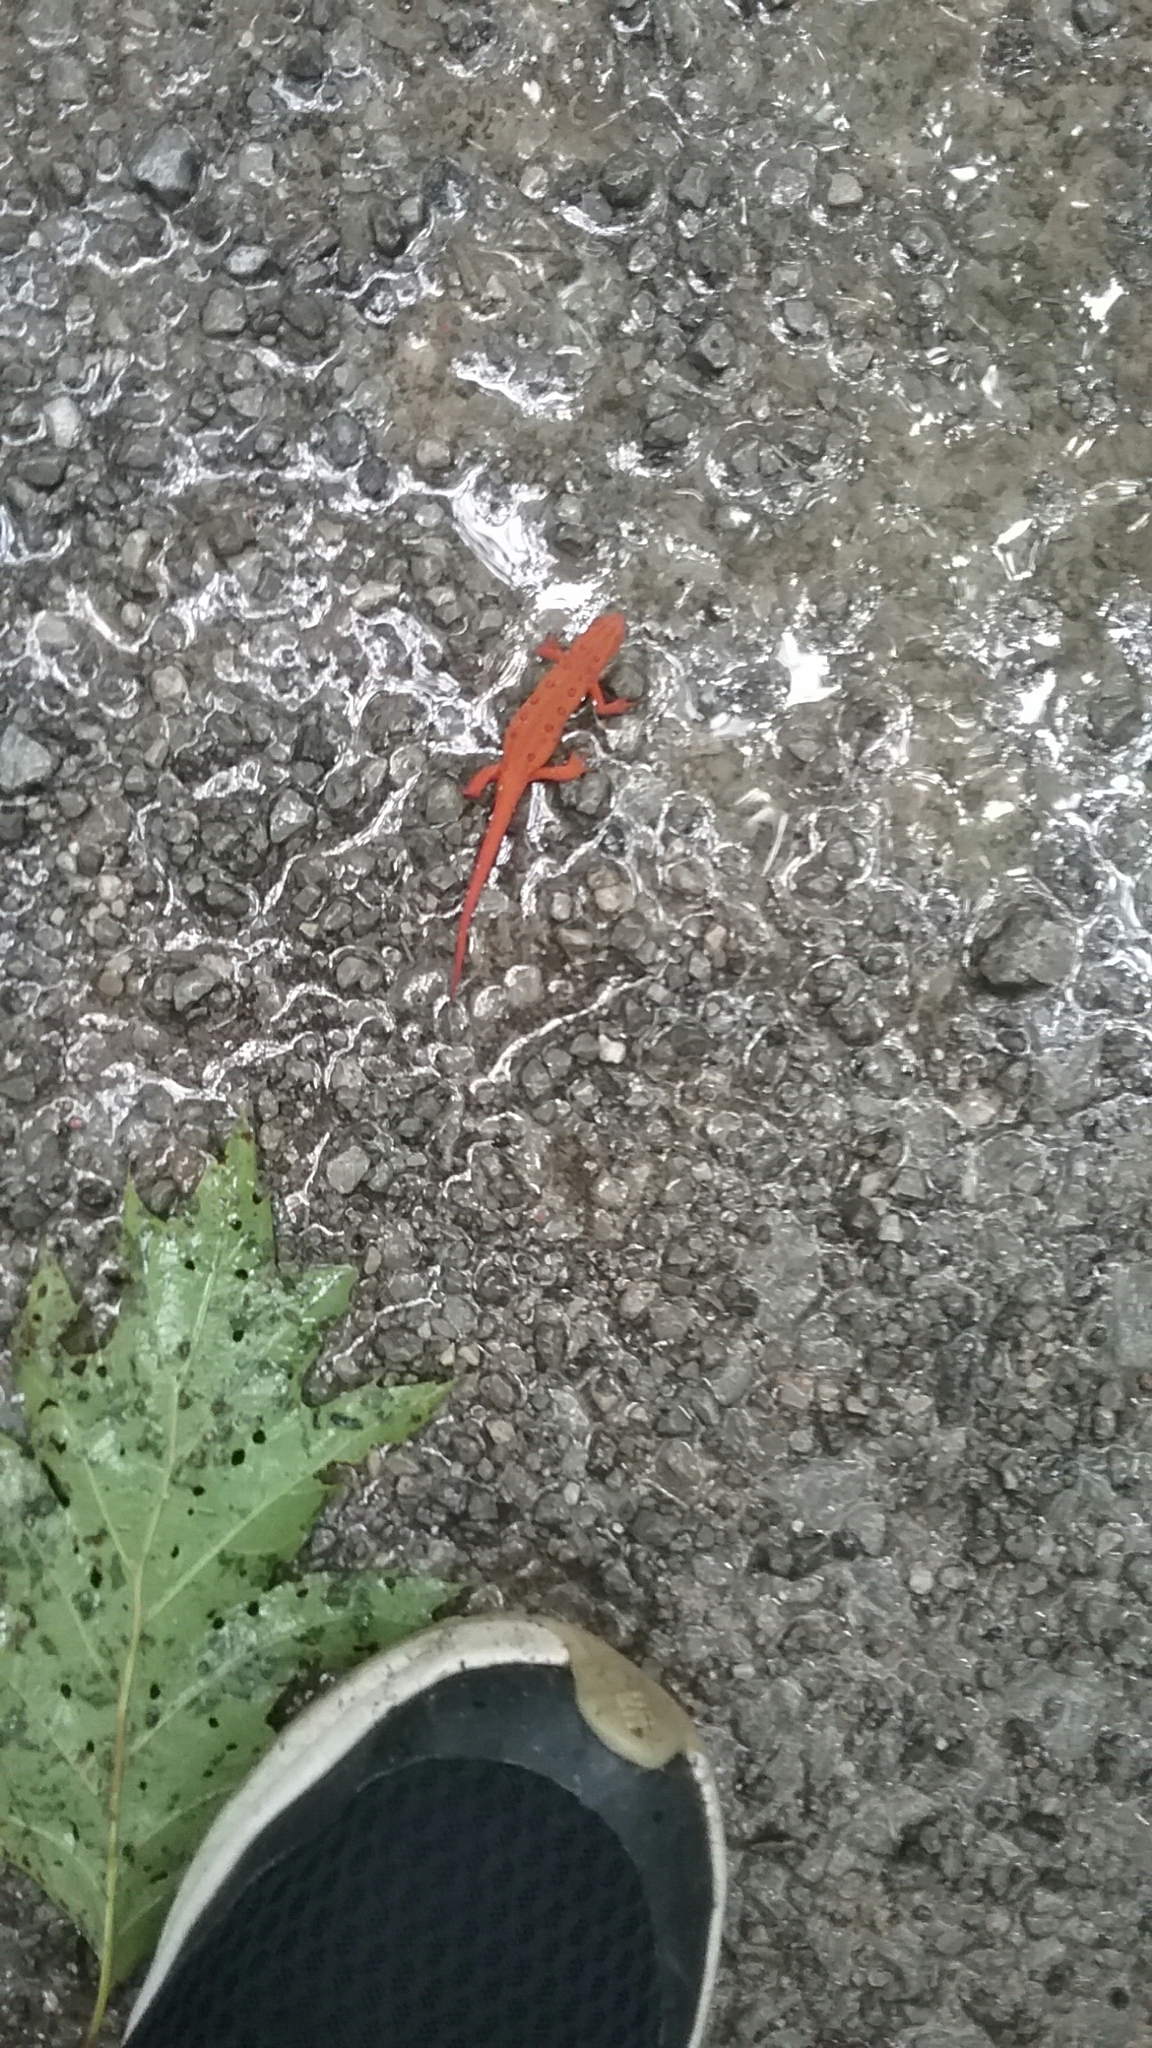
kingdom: Animalia
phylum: Chordata
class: Amphibia
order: Caudata
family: Salamandridae
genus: Notophthalmus
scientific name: Notophthalmus viridescens
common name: Eastern newt
